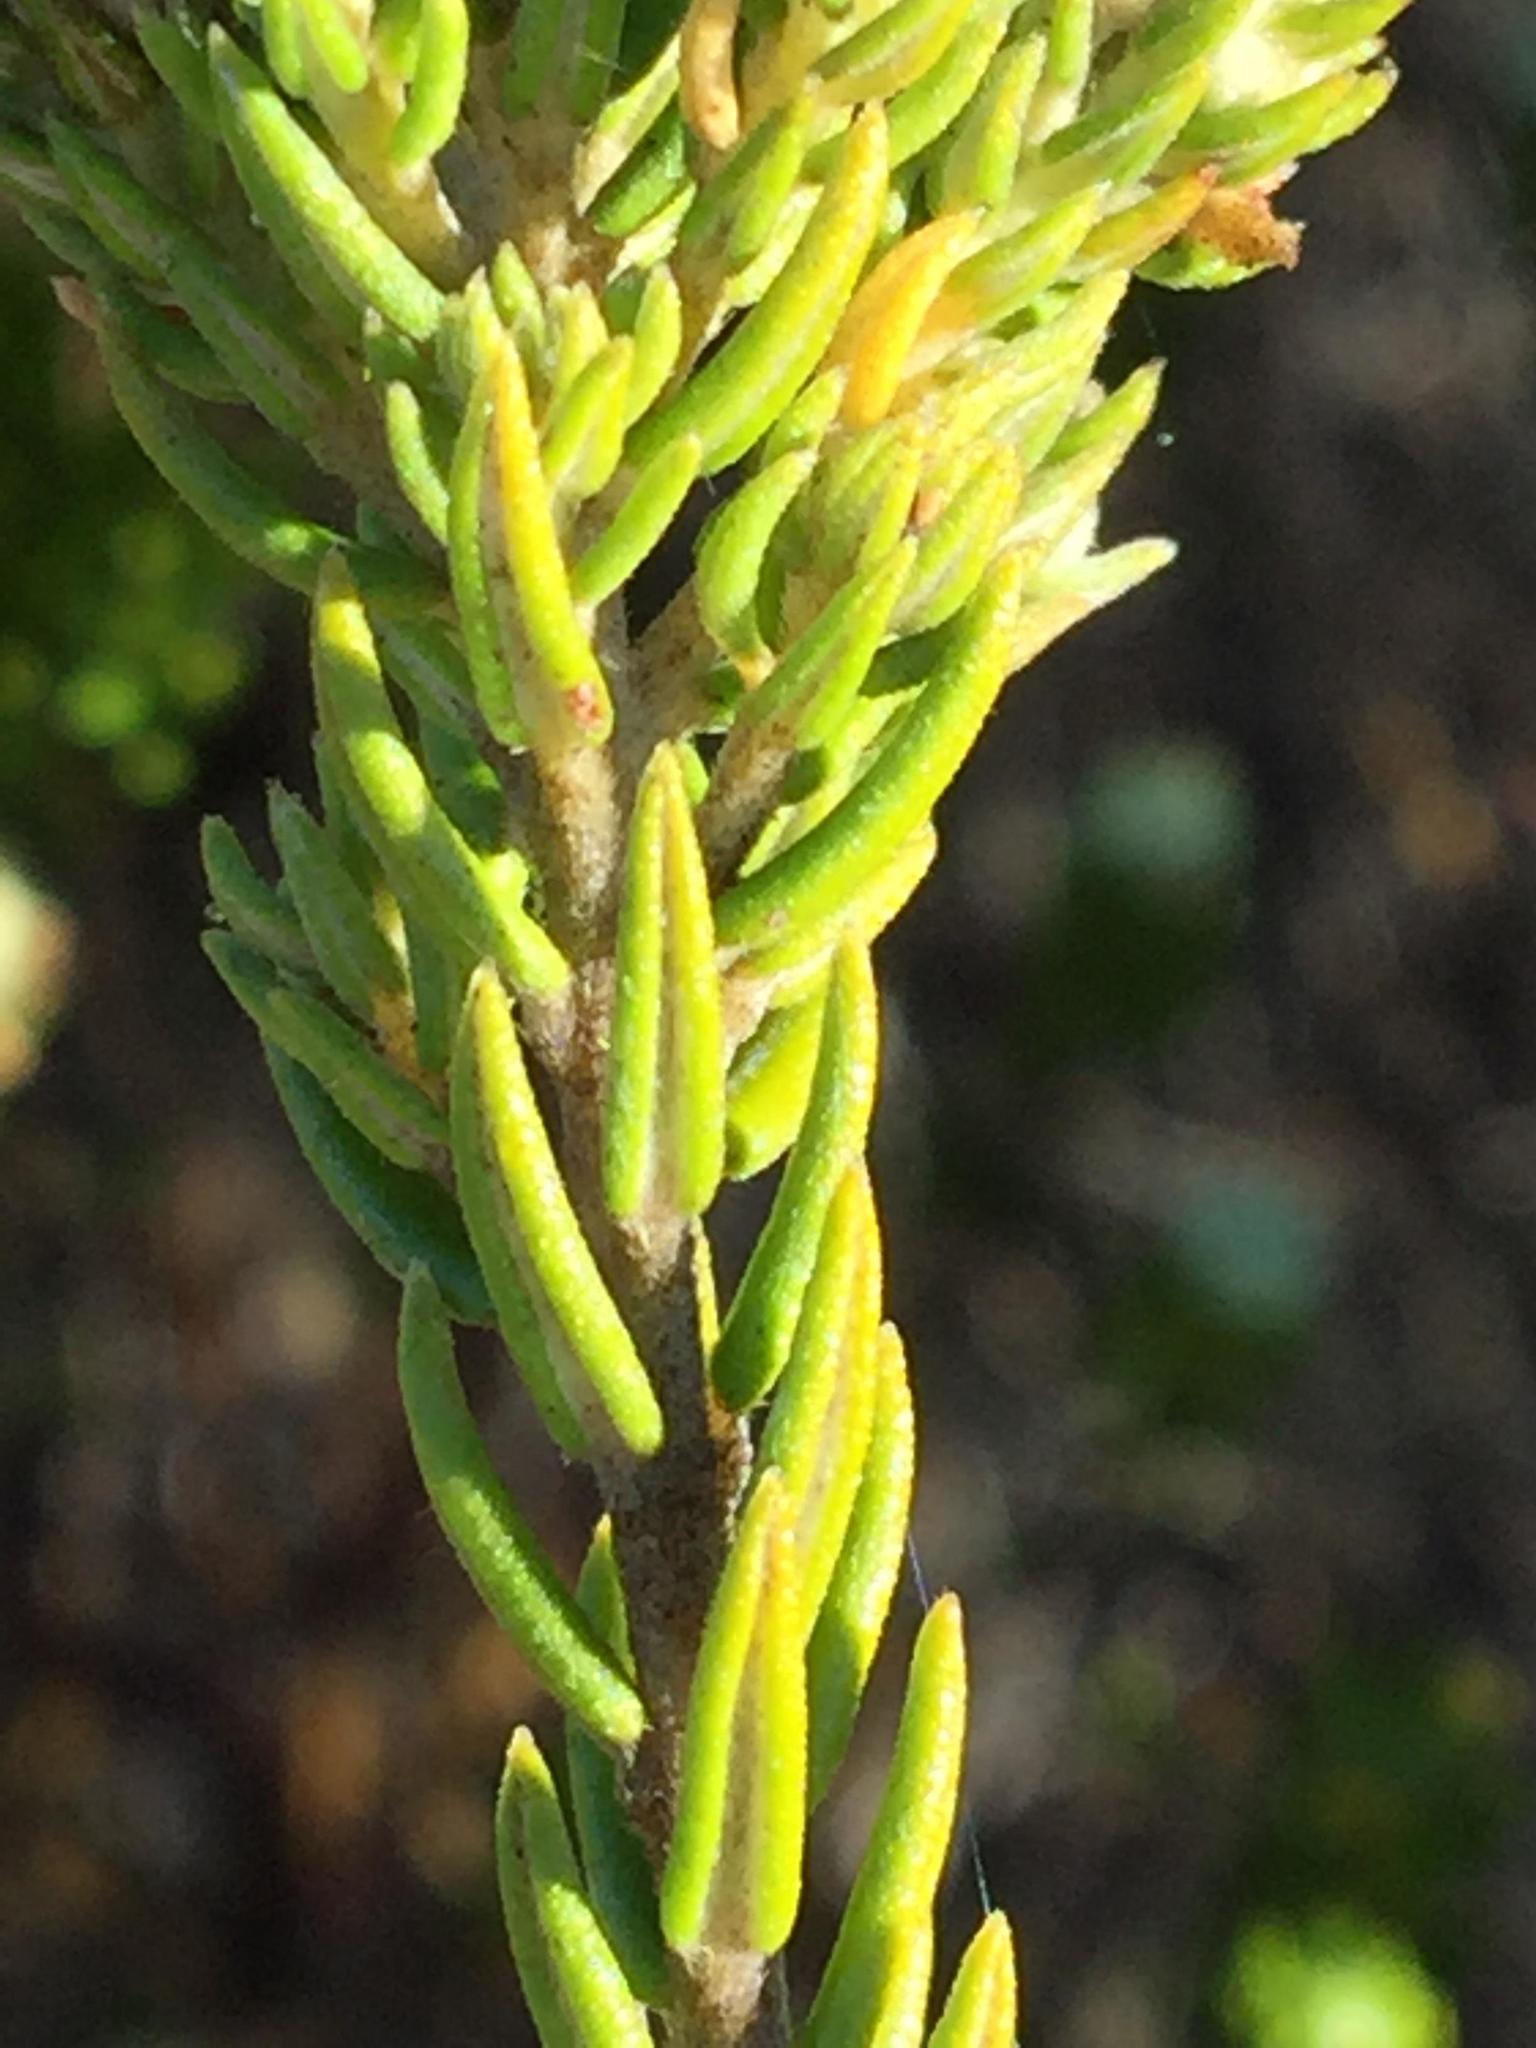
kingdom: Plantae
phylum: Tracheophyta
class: Magnoliopsida
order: Rosales
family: Rhamnaceae
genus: Phylica
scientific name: Phylica axillaris
